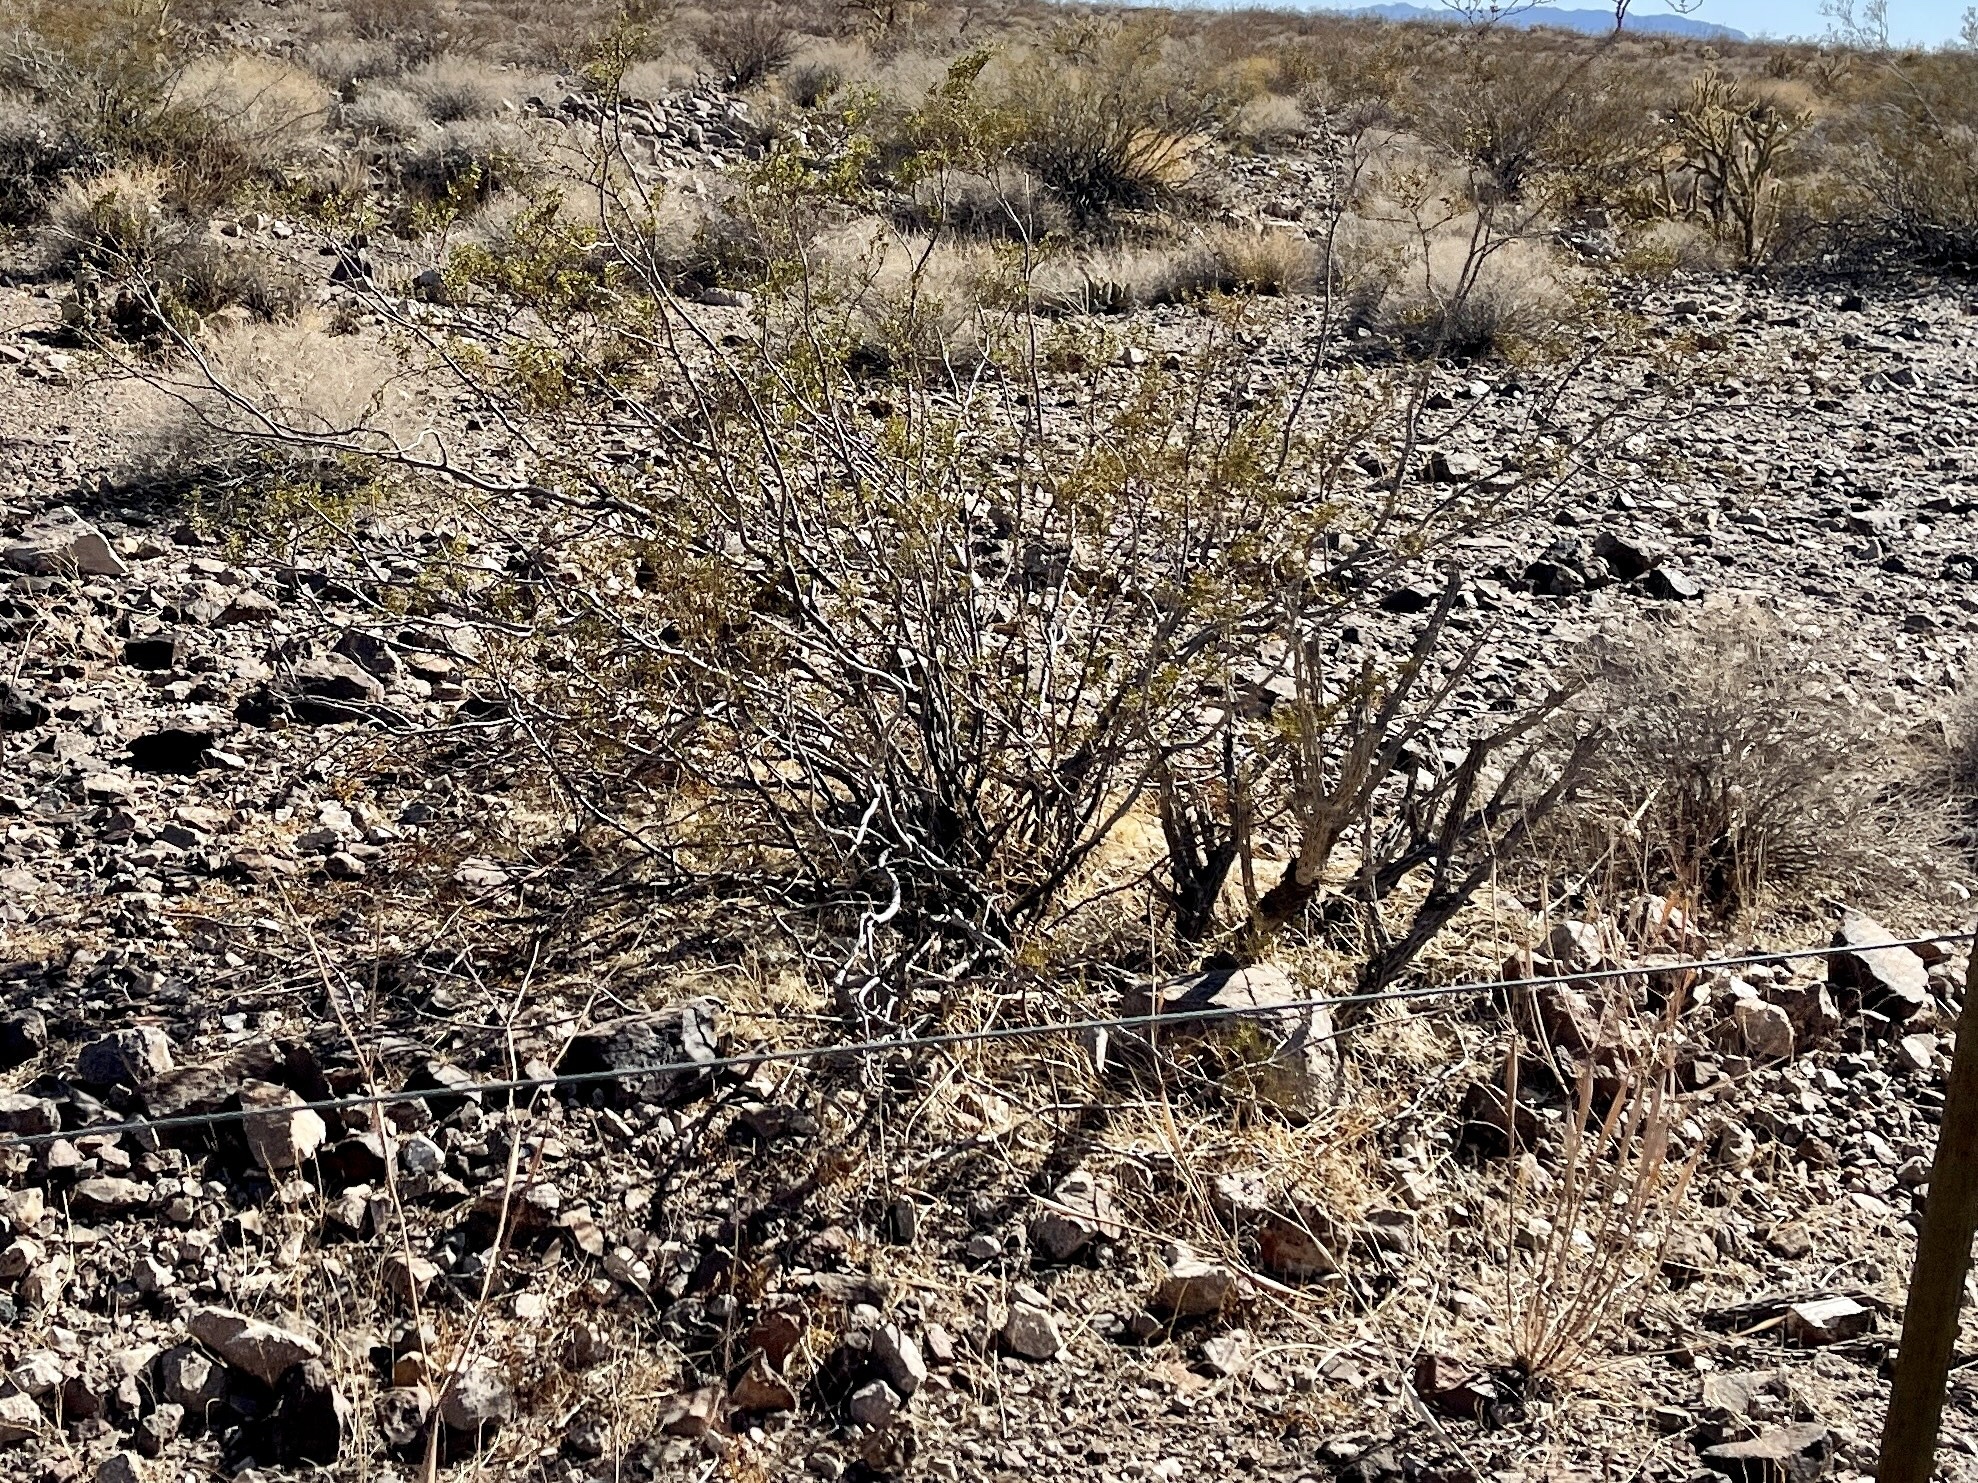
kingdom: Plantae
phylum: Tracheophyta
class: Magnoliopsida
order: Zygophyllales
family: Zygophyllaceae
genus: Larrea
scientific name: Larrea tridentata
